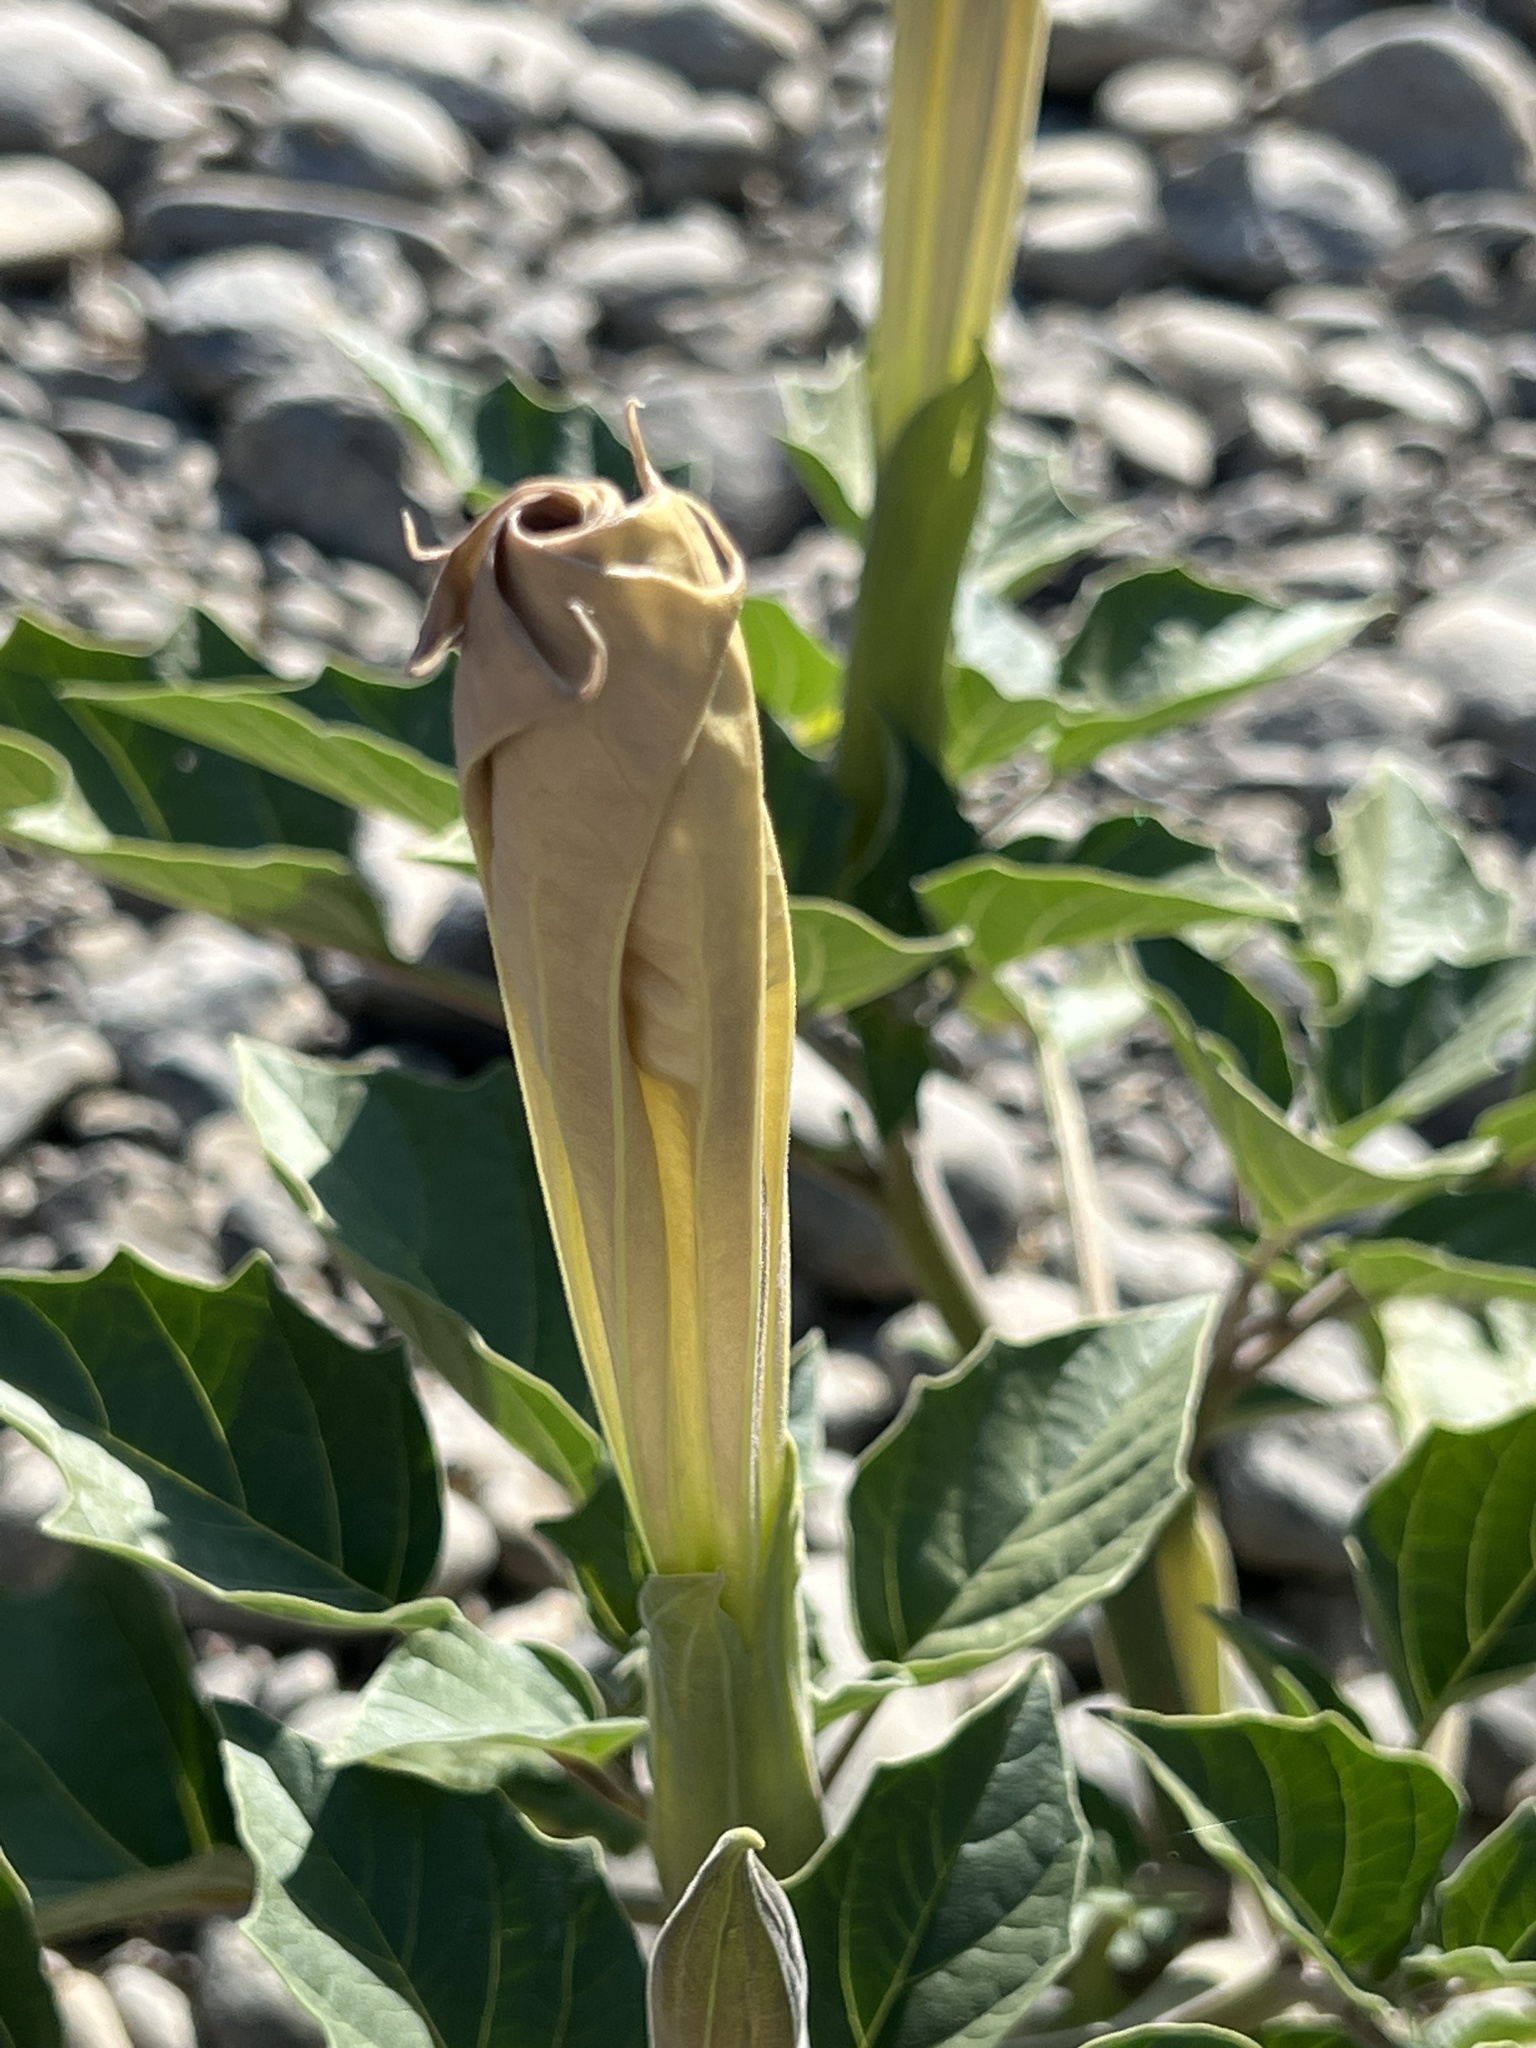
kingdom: Plantae
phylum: Tracheophyta
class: Magnoliopsida
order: Solanales
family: Solanaceae
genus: Datura
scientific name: Datura wrightii
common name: Sacred thorn-apple
